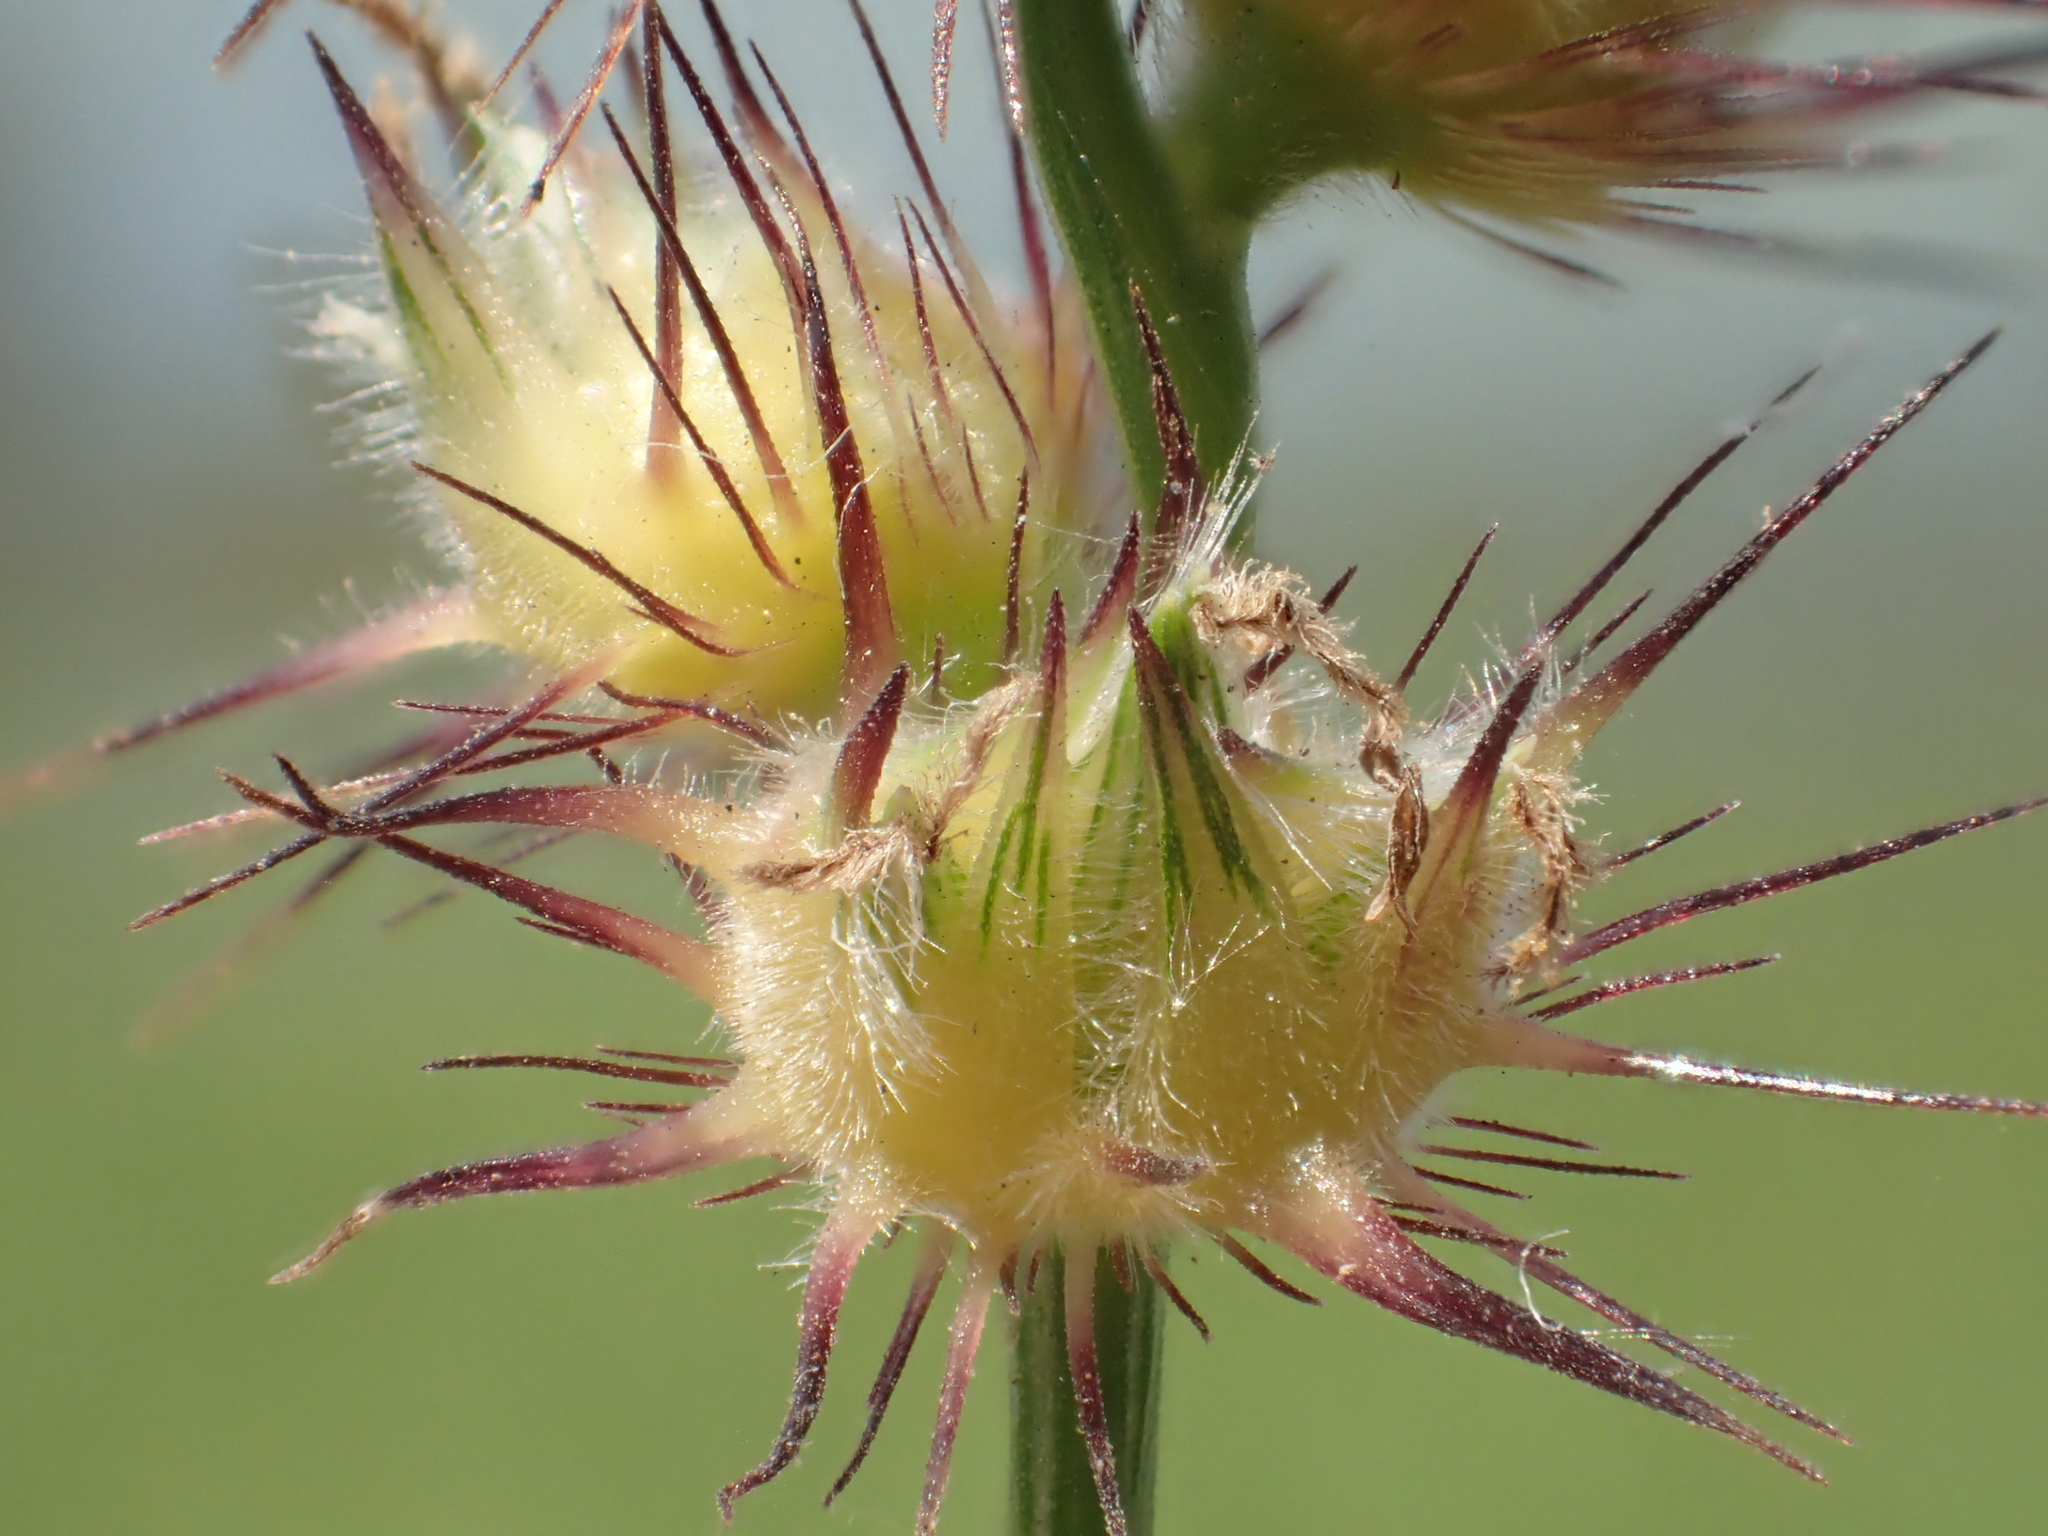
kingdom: Plantae
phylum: Tracheophyta
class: Liliopsida
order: Poales
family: Poaceae
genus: Cenchrus
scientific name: Cenchrus echinatus
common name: Southern sandbur
